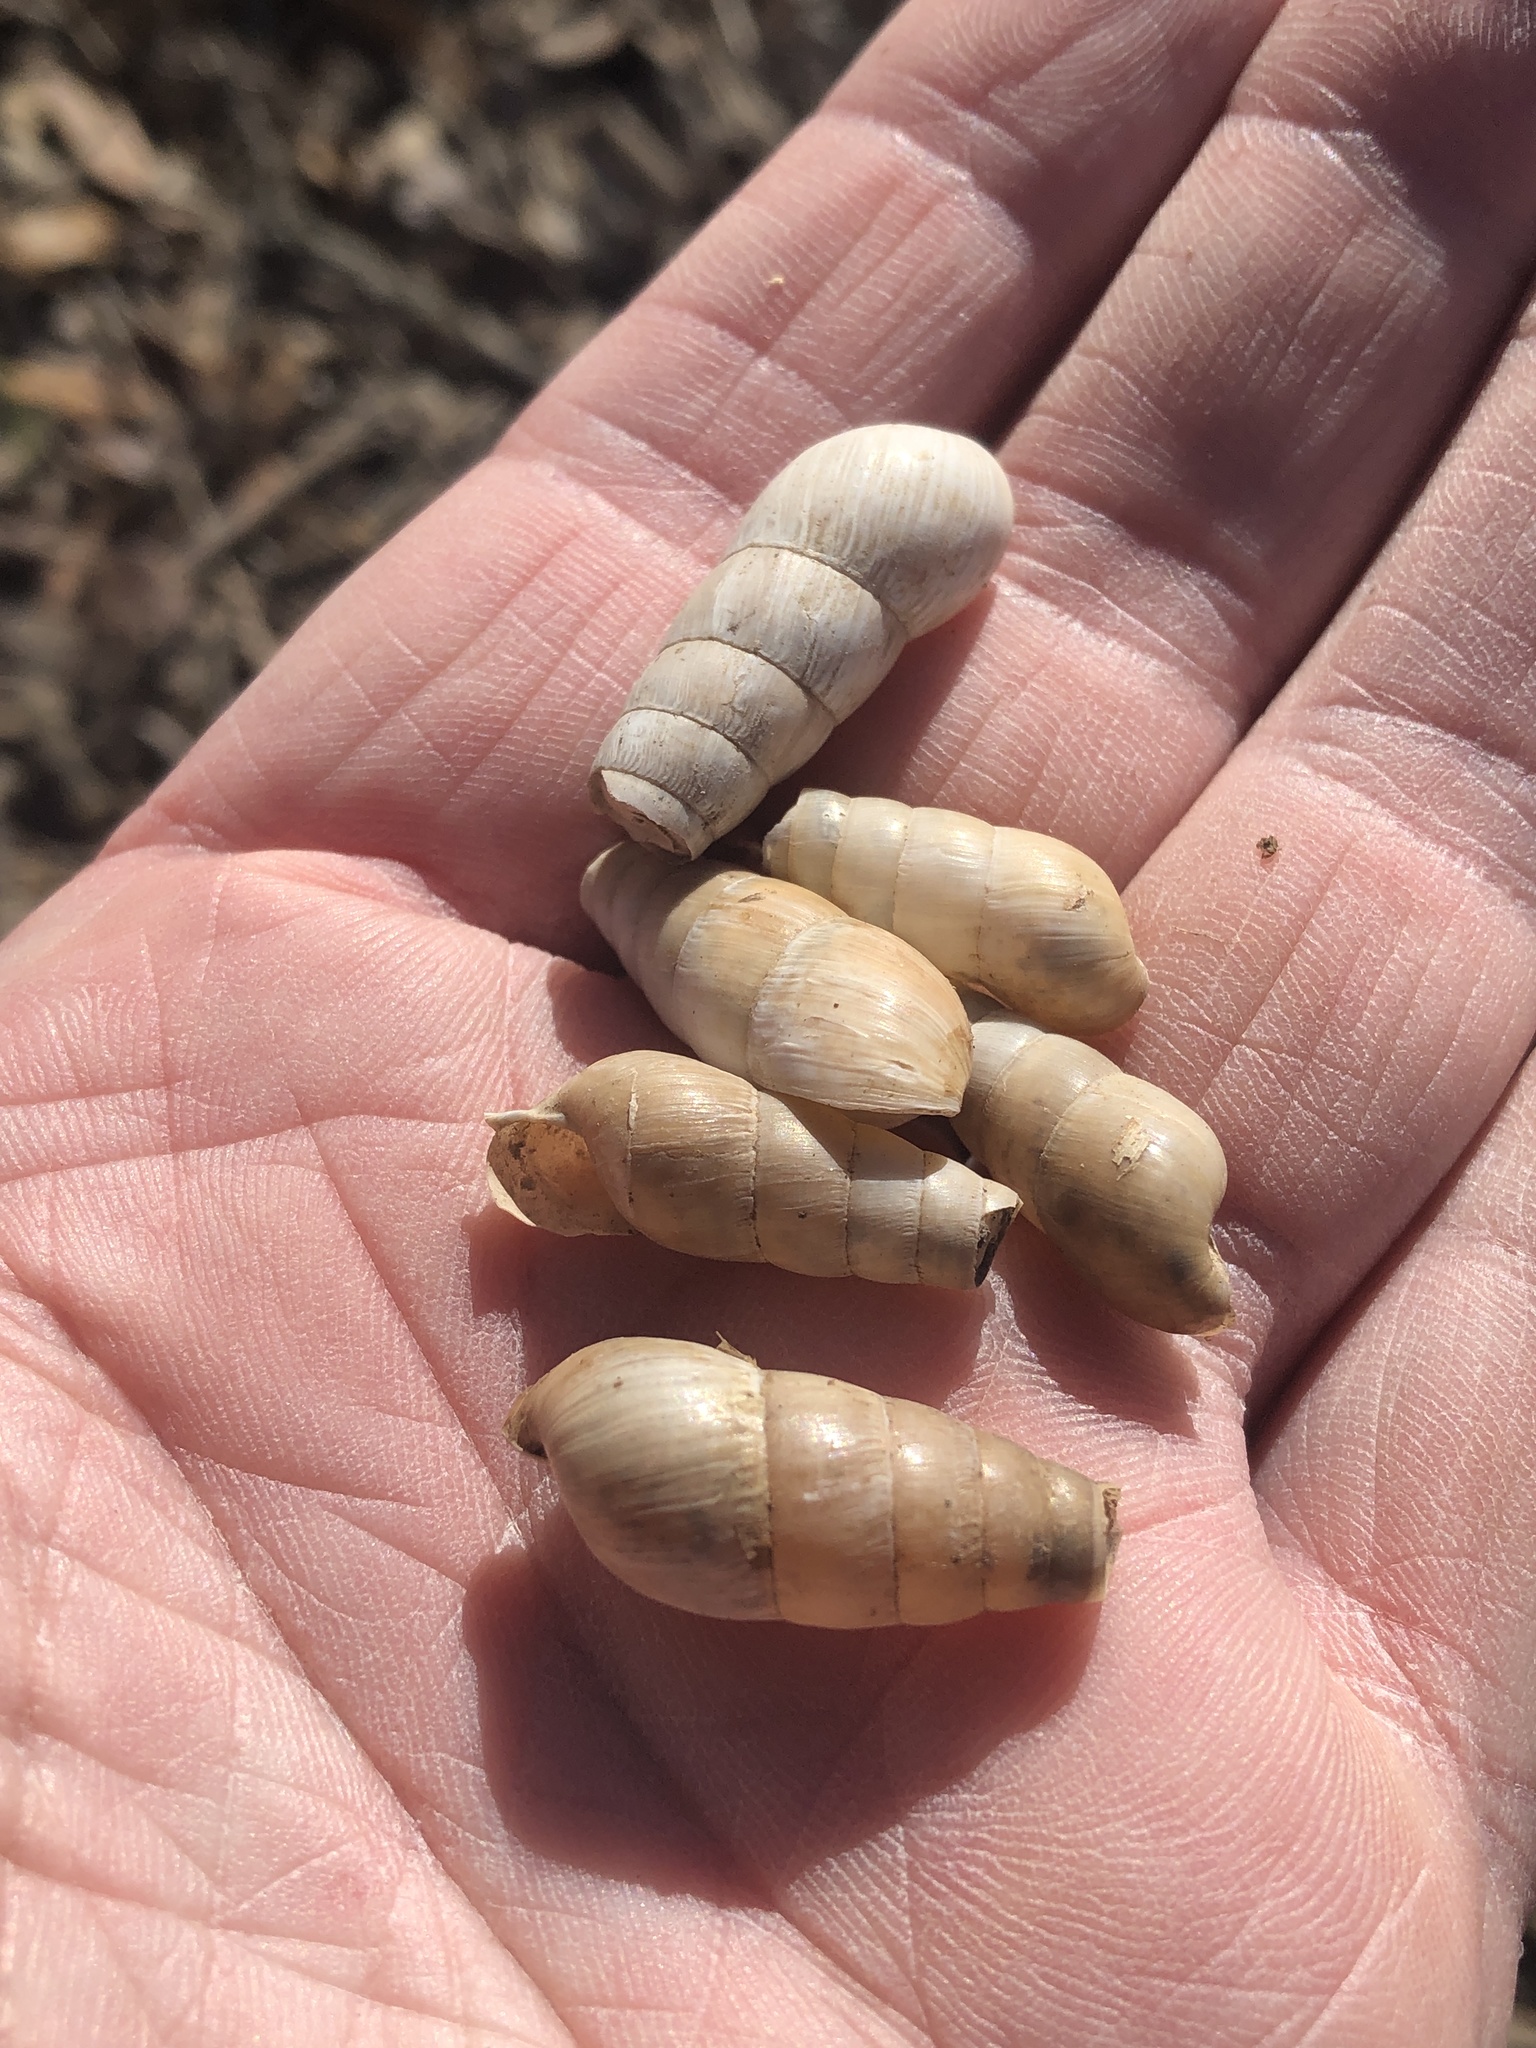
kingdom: Animalia
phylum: Mollusca
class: Gastropoda
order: Stylommatophora
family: Achatinidae
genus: Rumina
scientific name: Rumina decollata
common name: Decollate snail
